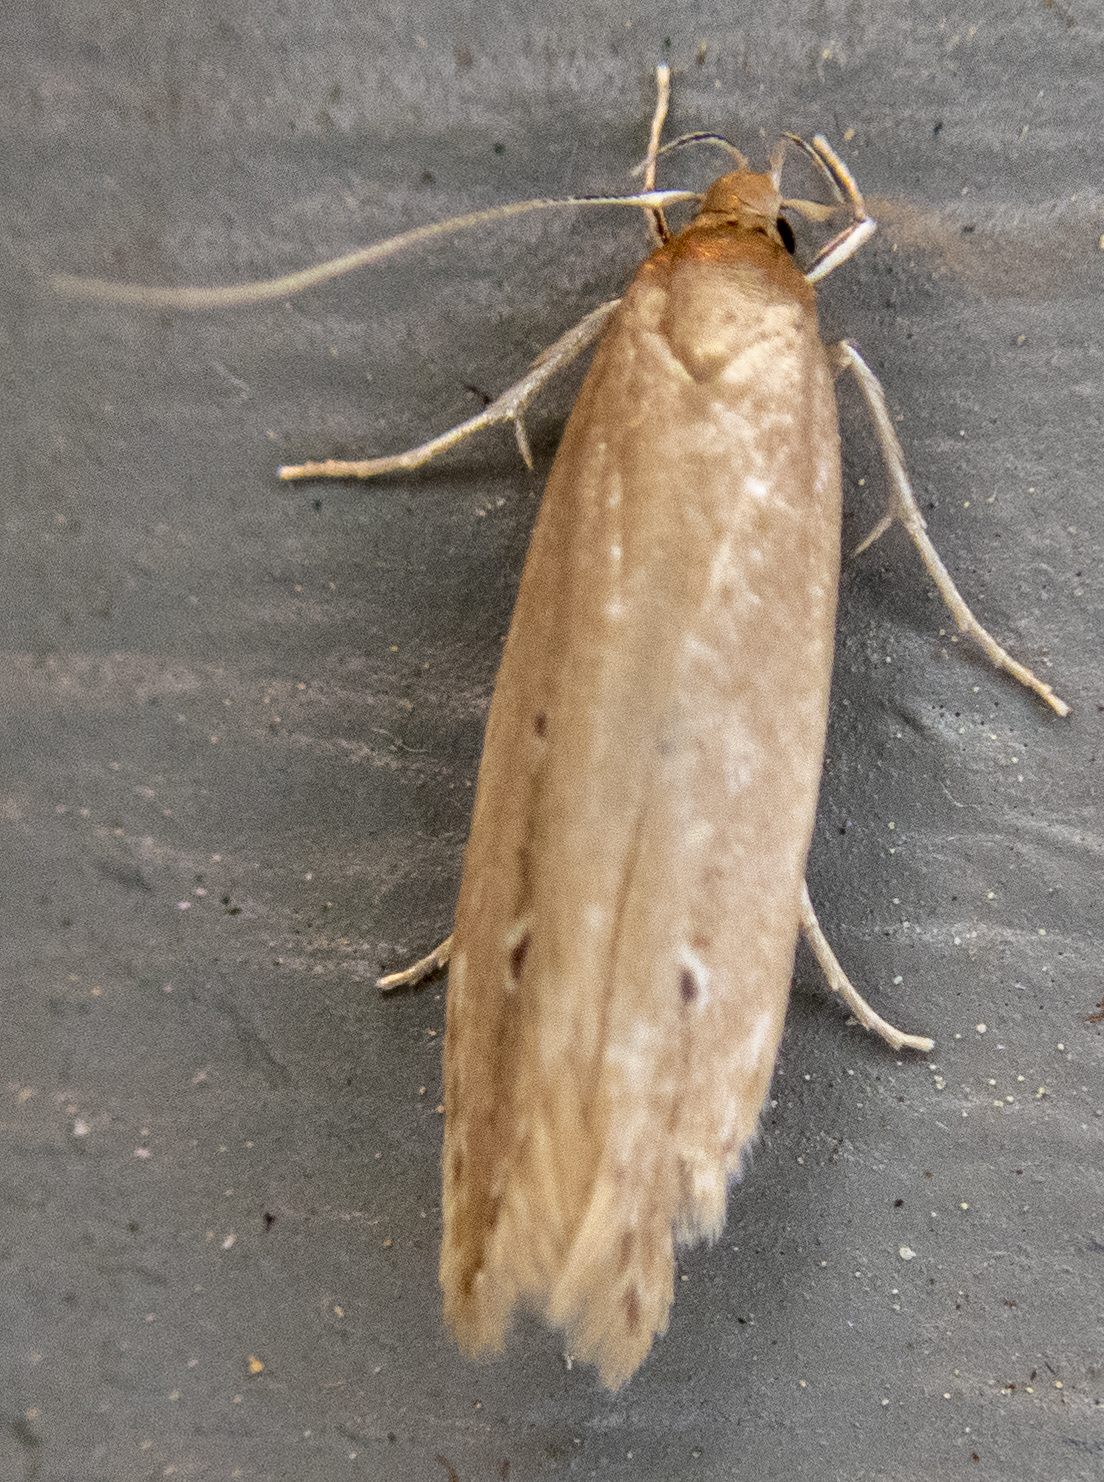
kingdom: Animalia
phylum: Arthropoda
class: Insecta
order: Lepidoptera
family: Cosmopterigidae
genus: Limnaecia
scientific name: Limnaecia phragmitella
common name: Bulrush cosmet
